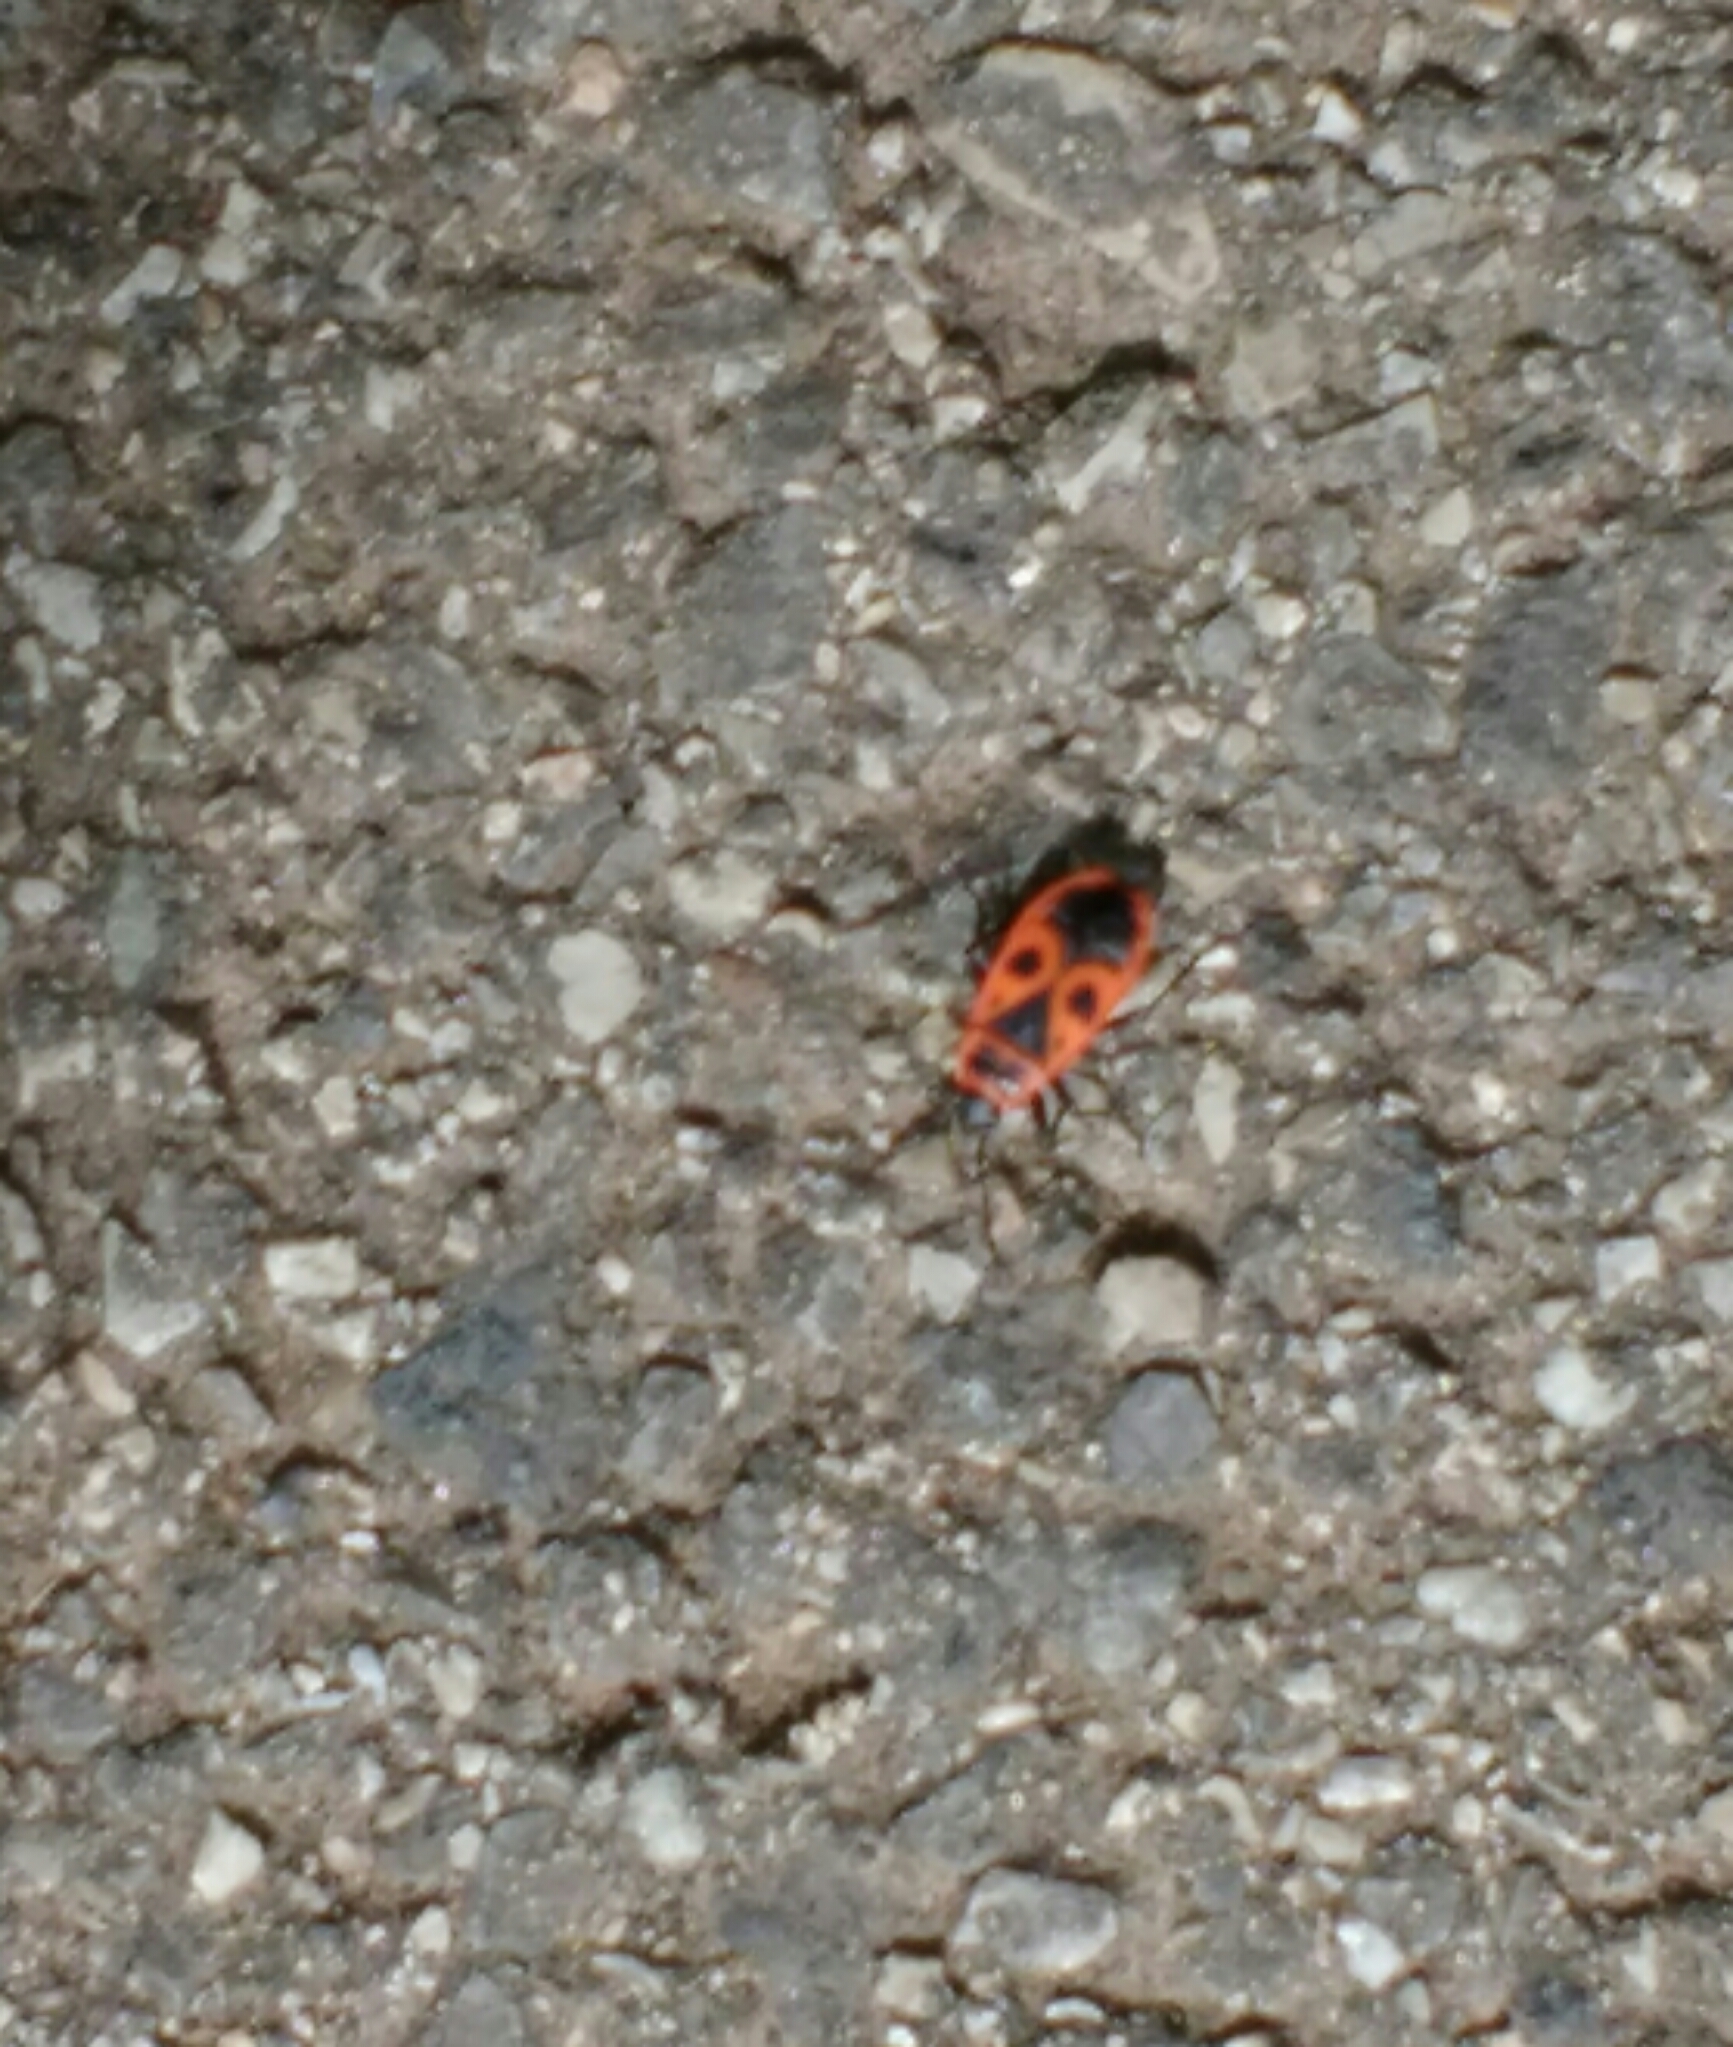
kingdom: Animalia
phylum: Arthropoda
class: Insecta
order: Hemiptera
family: Pyrrhocoridae
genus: Pyrrhocoris
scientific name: Pyrrhocoris apterus
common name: Firebug
